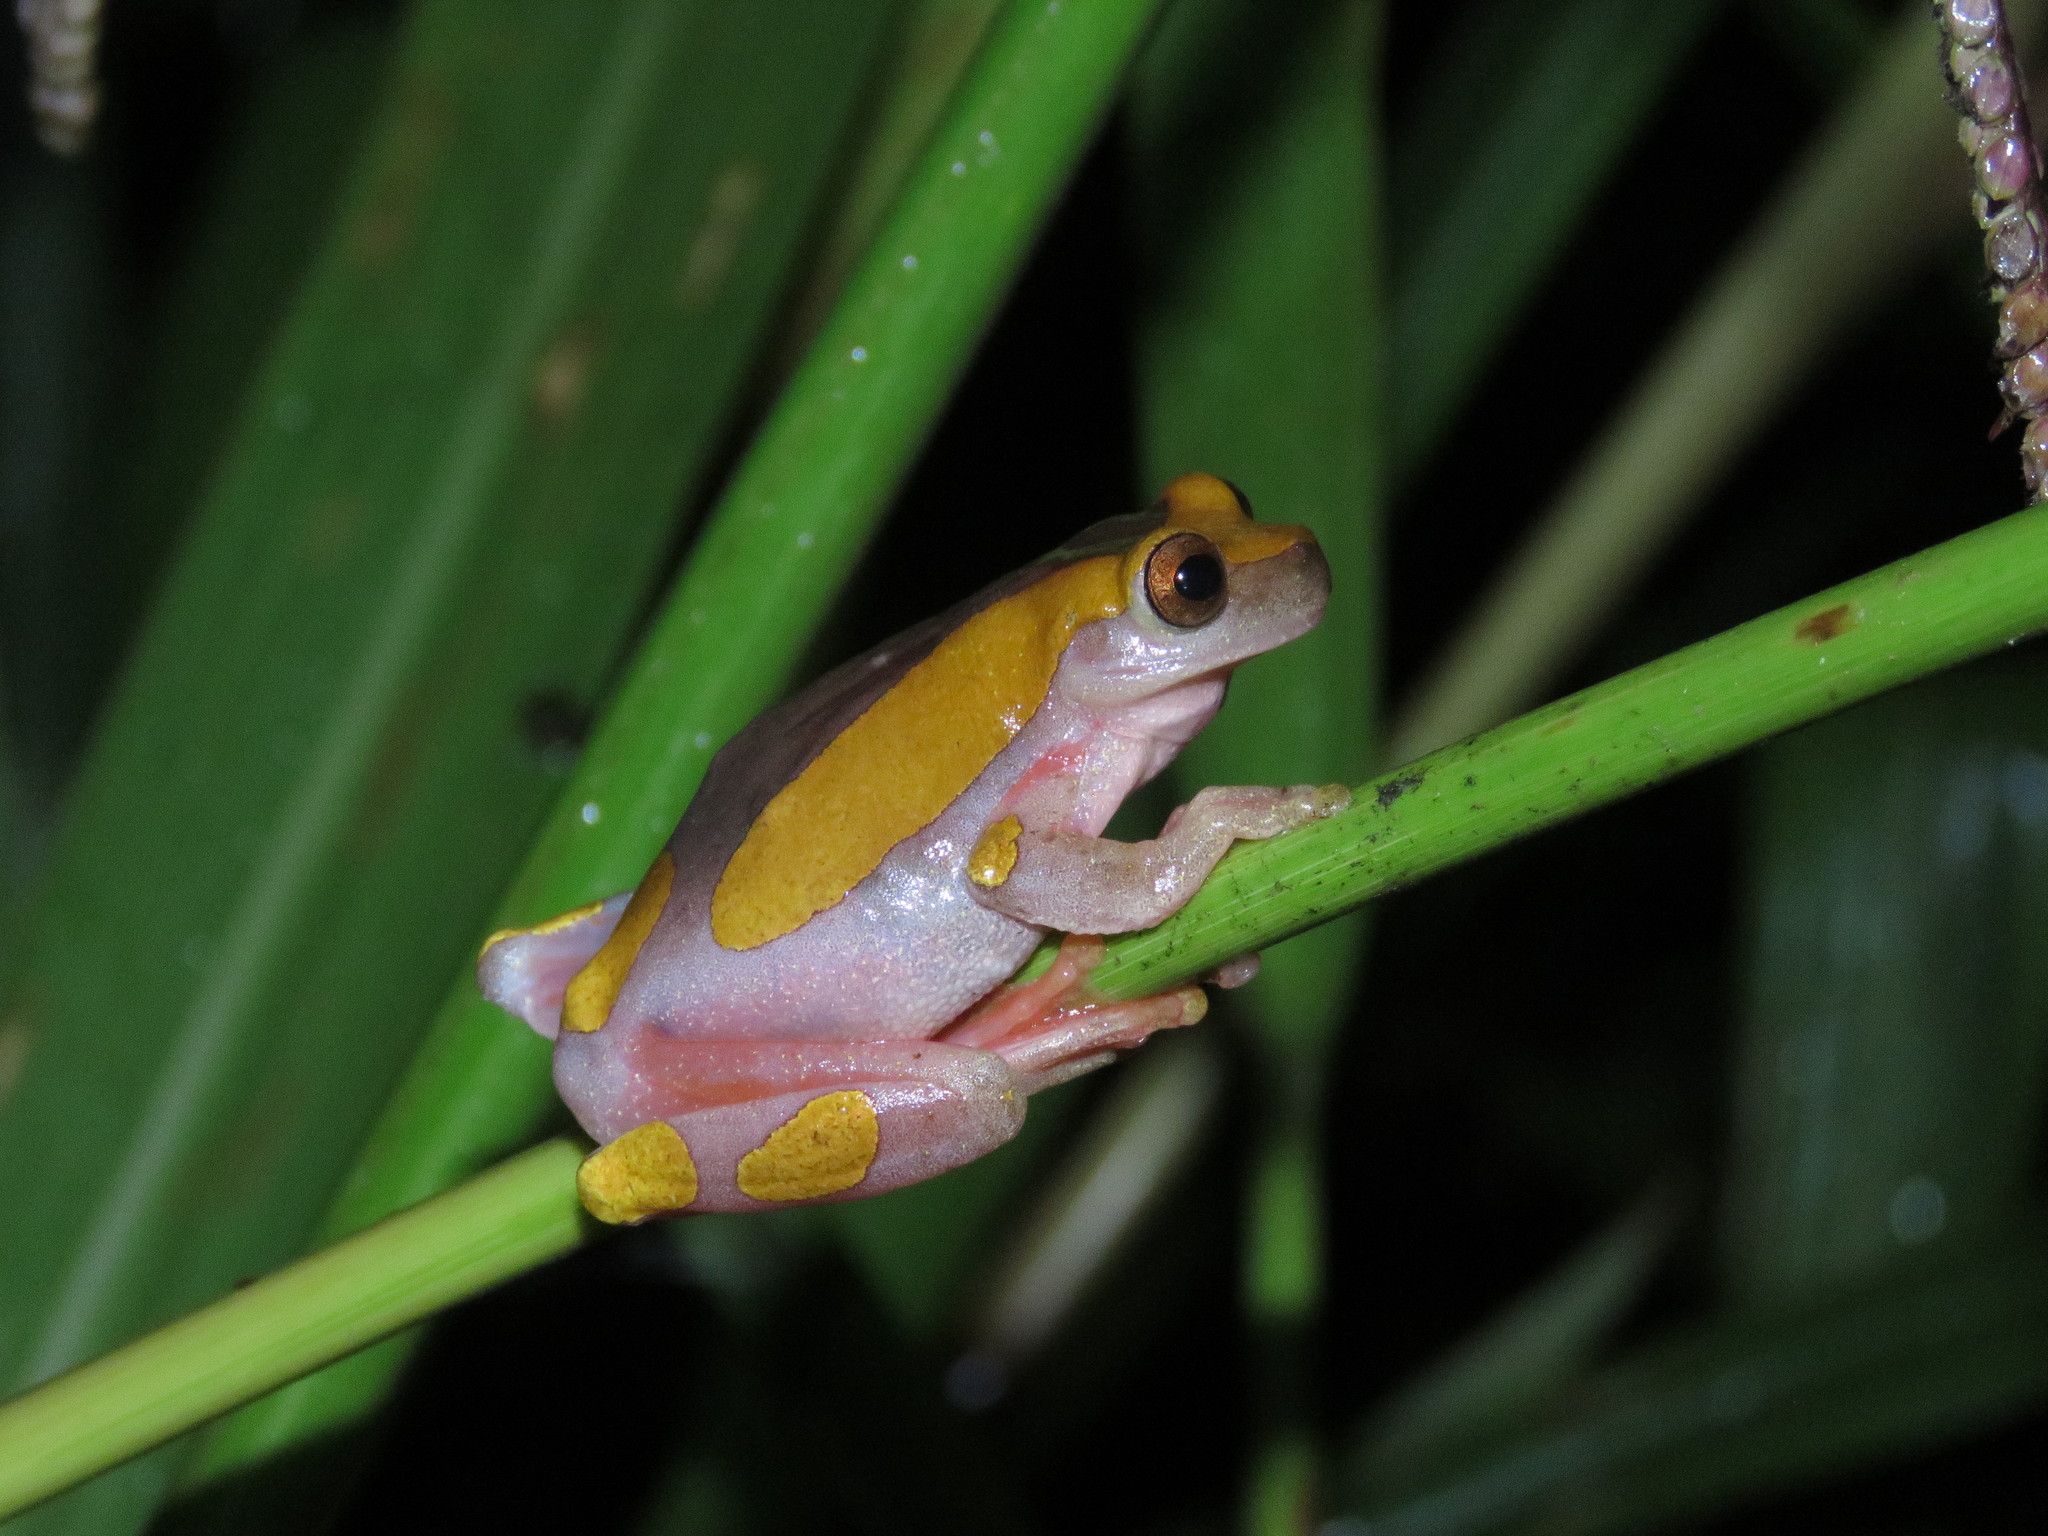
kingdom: Animalia
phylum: Chordata
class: Amphibia
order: Anura
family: Hylidae
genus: Dendropsophus
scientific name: Dendropsophus arndti
